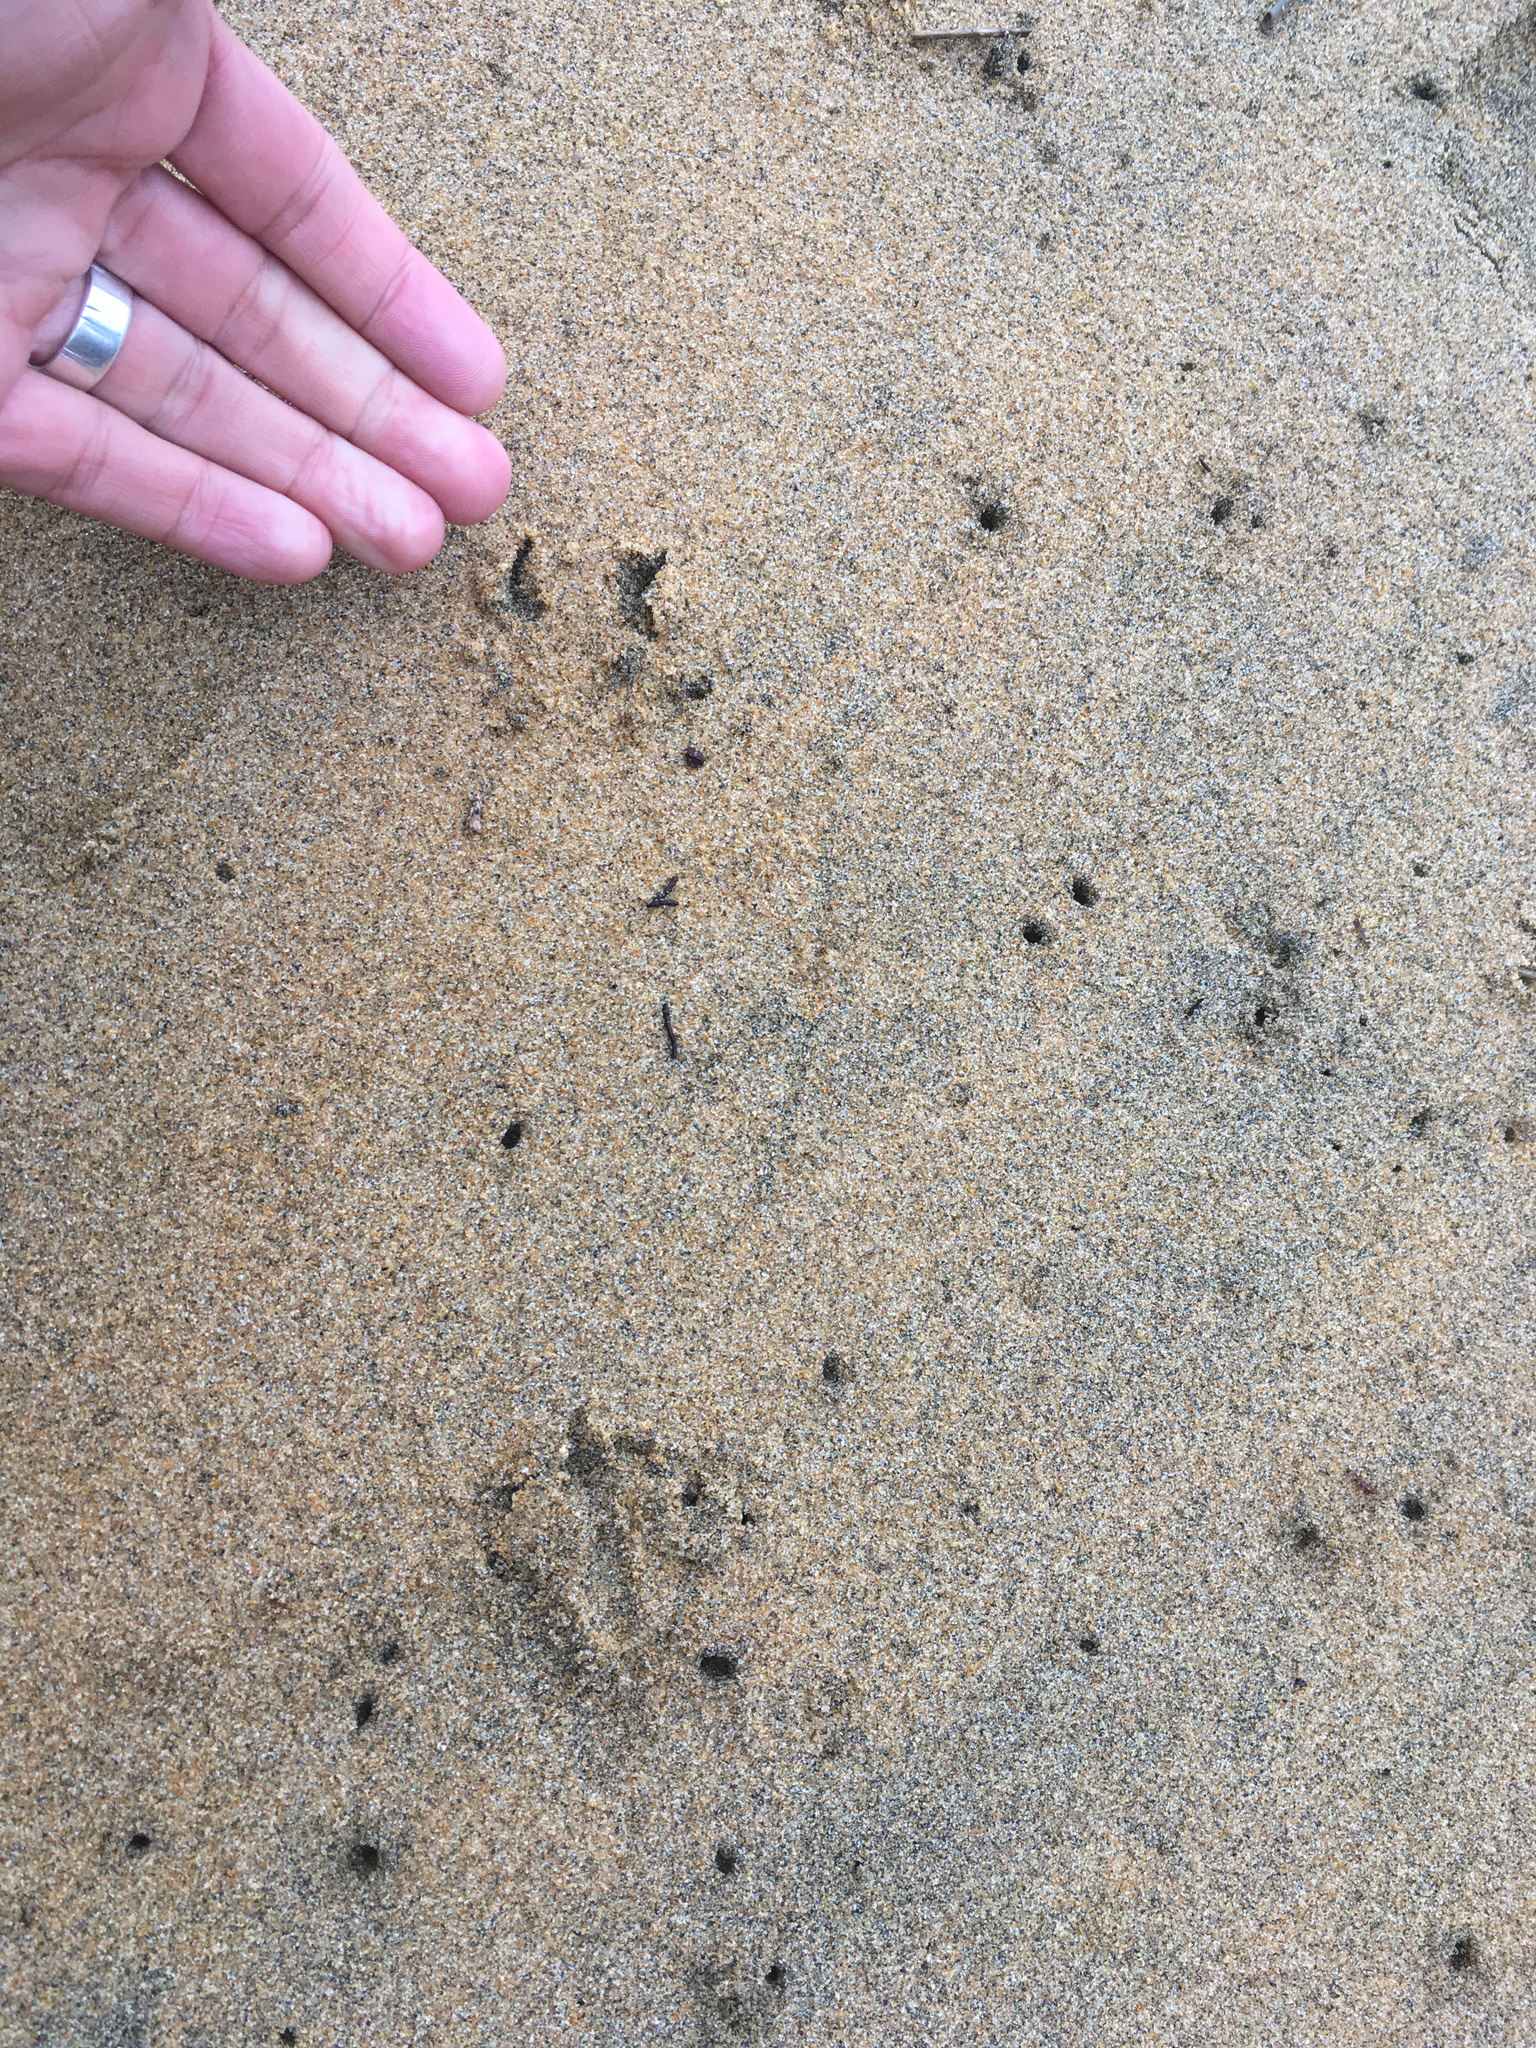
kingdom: Animalia
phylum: Chordata
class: Aves
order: Sphenisciformes
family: Spheniscidae
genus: Eudyptula
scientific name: Eudyptula minor
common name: Little penguin
